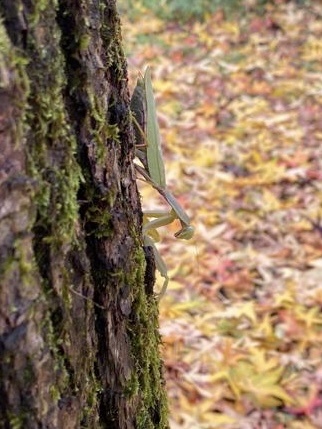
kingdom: Animalia
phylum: Arthropoda
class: Insecta
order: Mantodea
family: Mantidae
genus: Hierodula
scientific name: Hierodula patellifera
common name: Asian mantis
